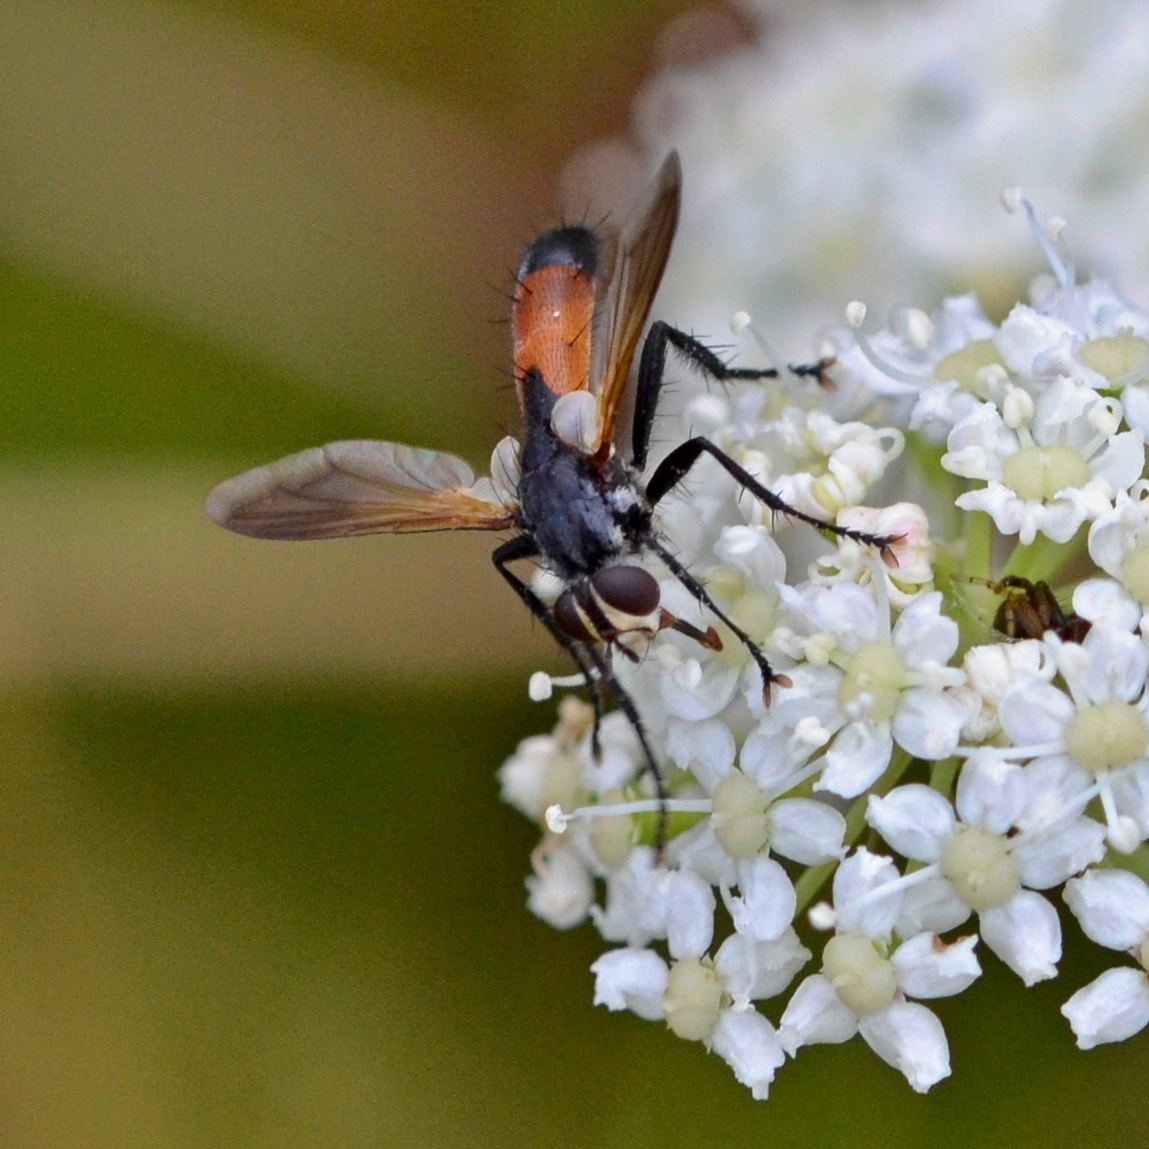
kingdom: Animalia
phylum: Arthropoda
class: Insecta
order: Diptera
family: Tachinidae
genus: Cylindromyia
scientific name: Cylindromyia pilipes
